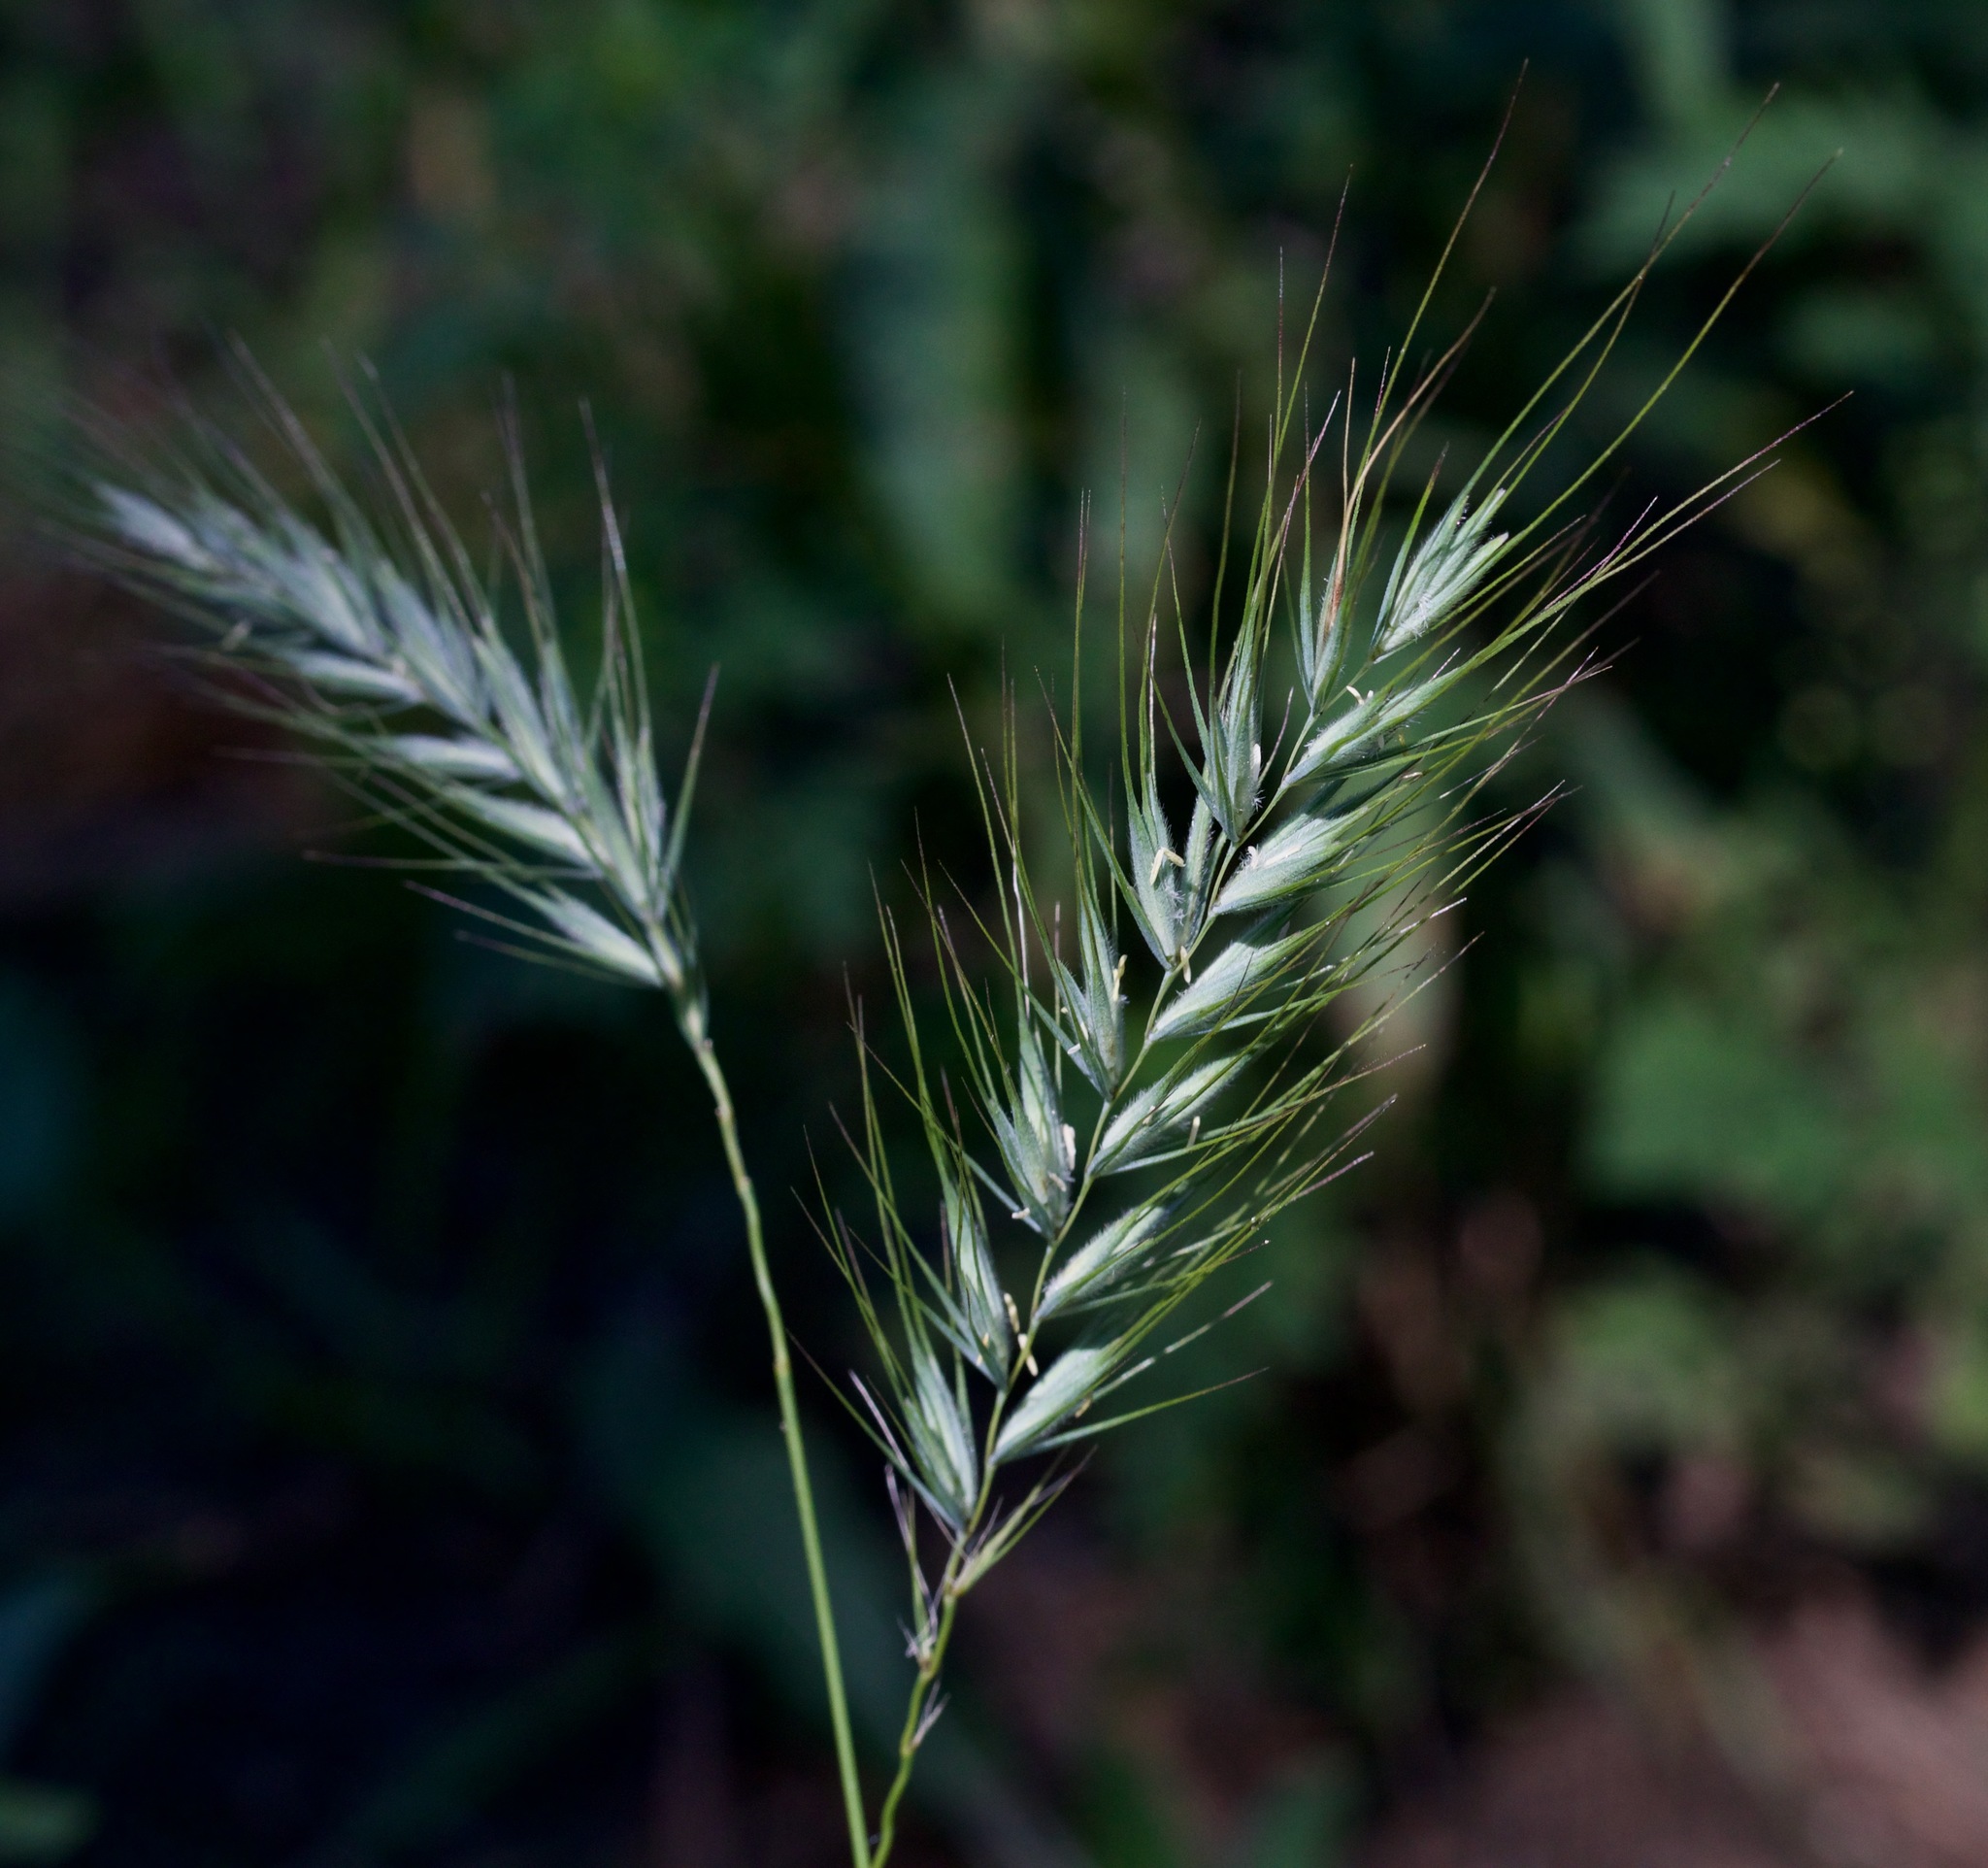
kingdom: Plantae
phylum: Tracheophyta
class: Liliopsida
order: Poales
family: Poaceae
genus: Elymus
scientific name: Elymus canadensis
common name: Canada wild rye
